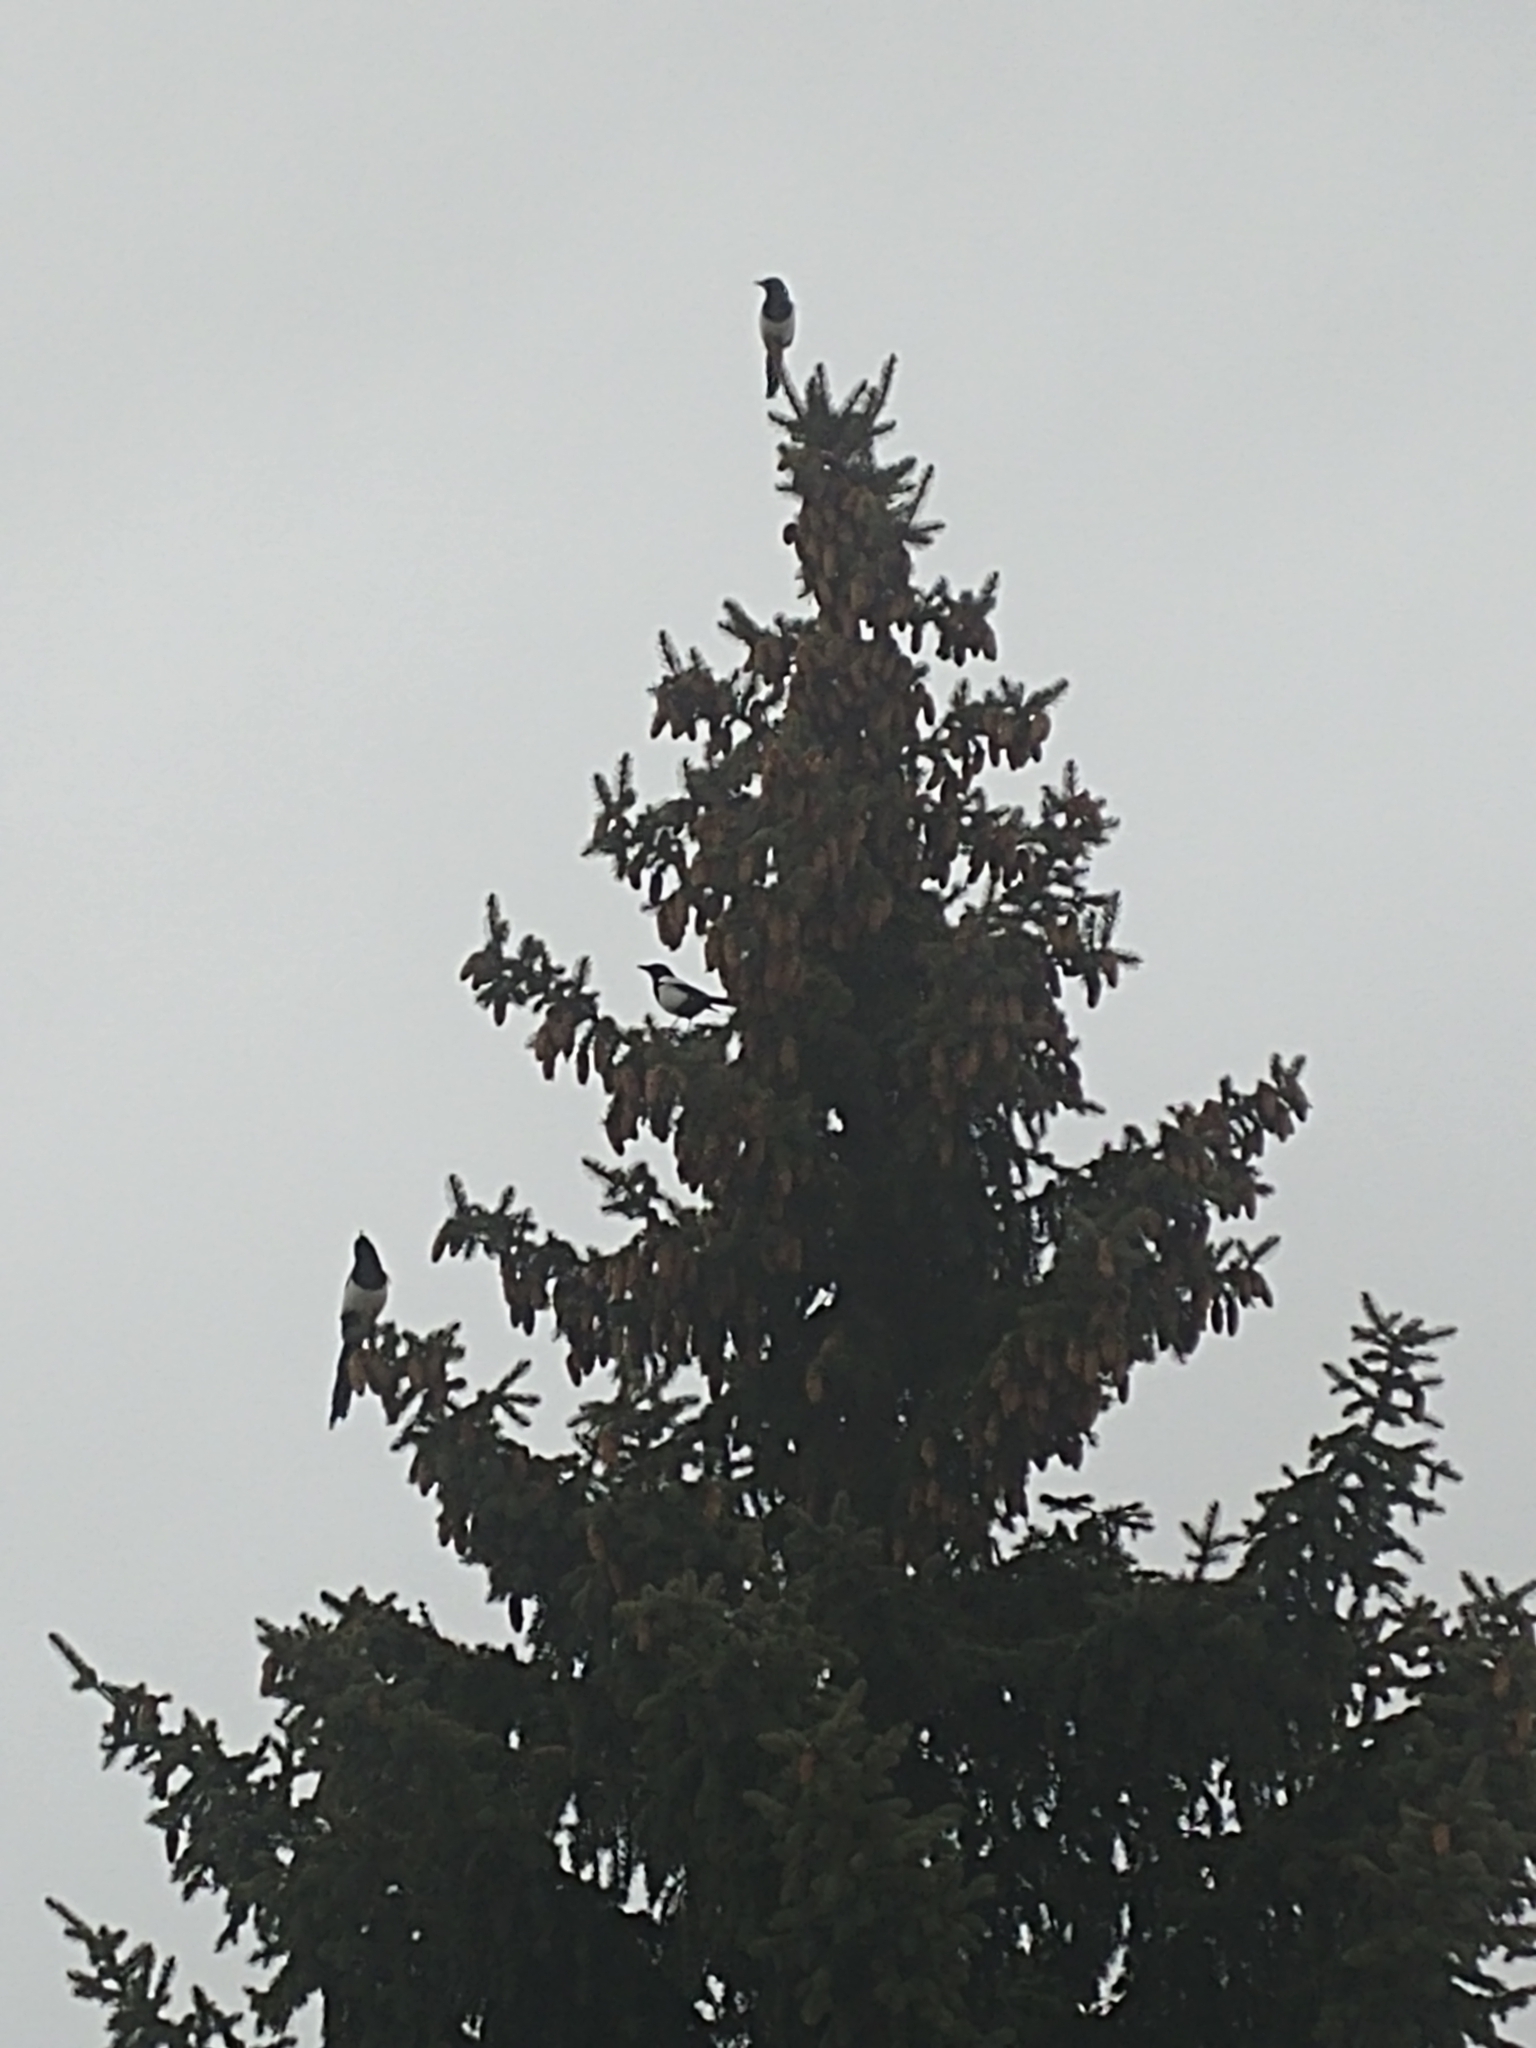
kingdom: Animalia
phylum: Chordata
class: Aves
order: Passeriformes
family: Corvidae
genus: Pica
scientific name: Pica hudsonia
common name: Black-billed magpie
